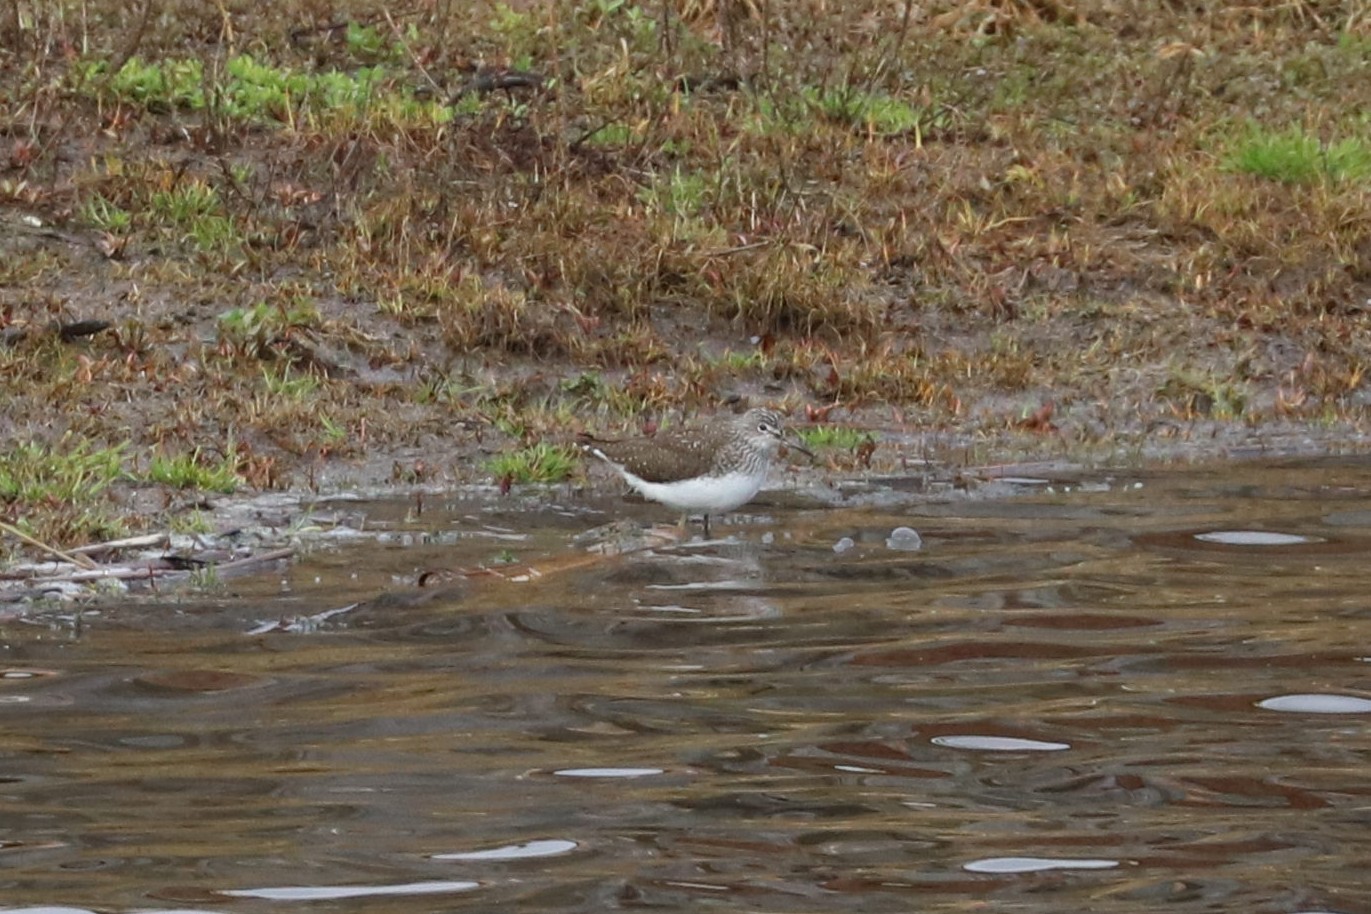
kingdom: Animalia
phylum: Chordata
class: Aves
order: Charadriiformes
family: Scolopacidae
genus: Tringa
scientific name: Tringa ochropus
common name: Green sandpiper
